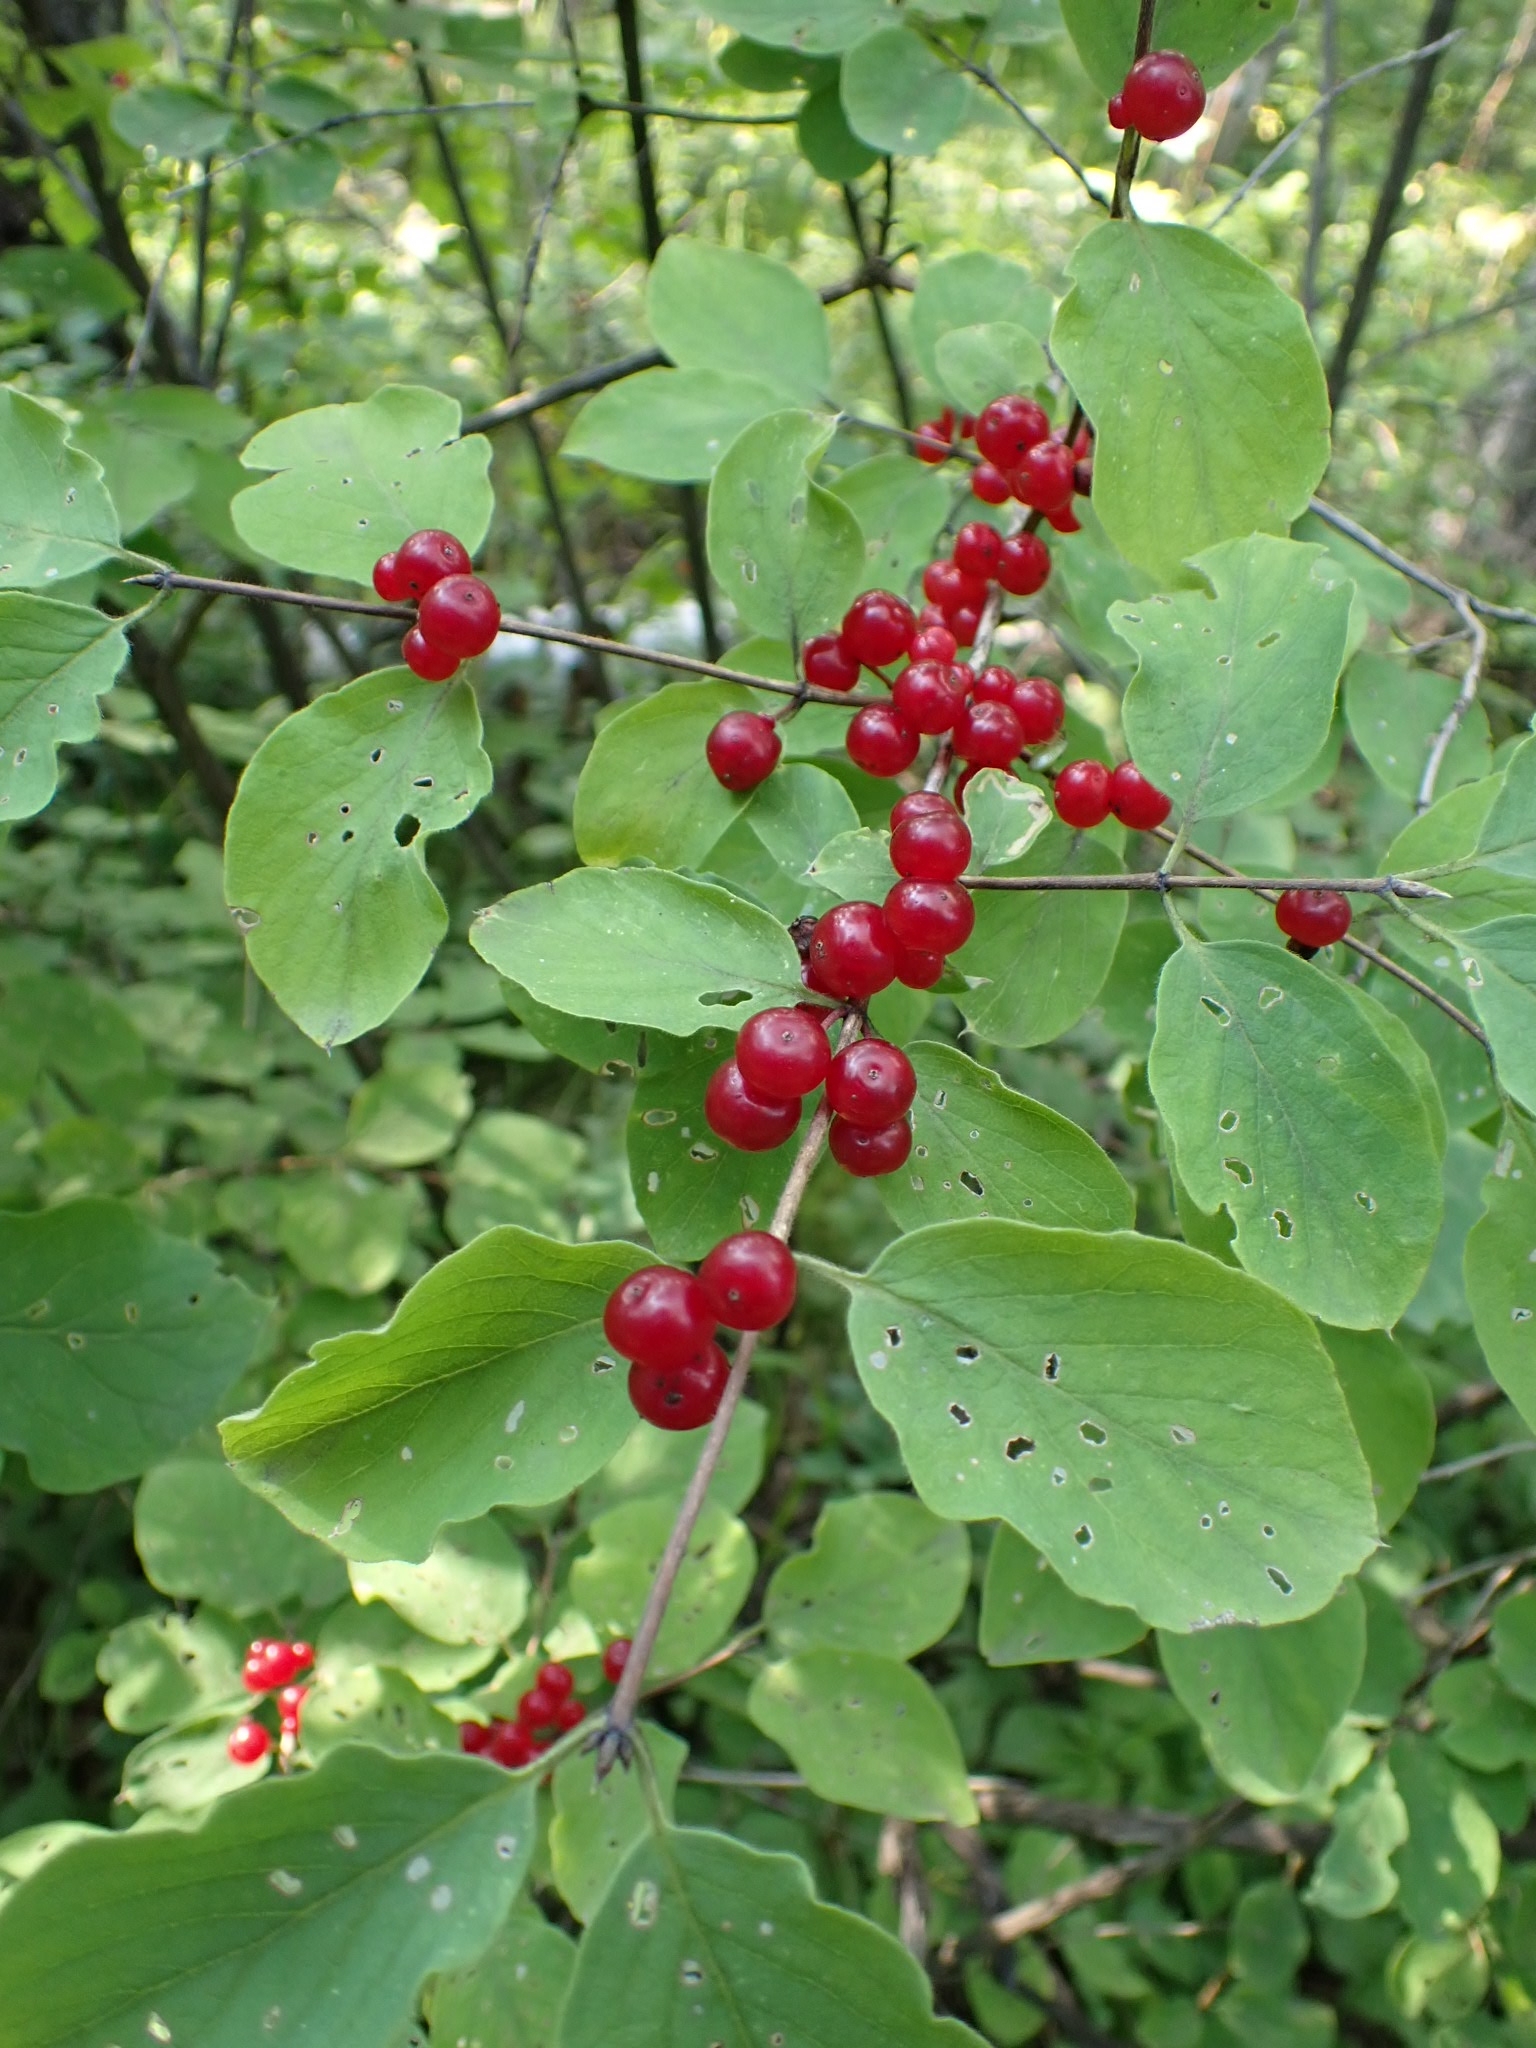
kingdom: Plantae
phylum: Tracheophyta
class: Magnoliopsida
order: Dipsacales
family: Caprifoliaceae
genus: Lonicera
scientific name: Lonicera xylosteum
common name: Fly honeysuckle
